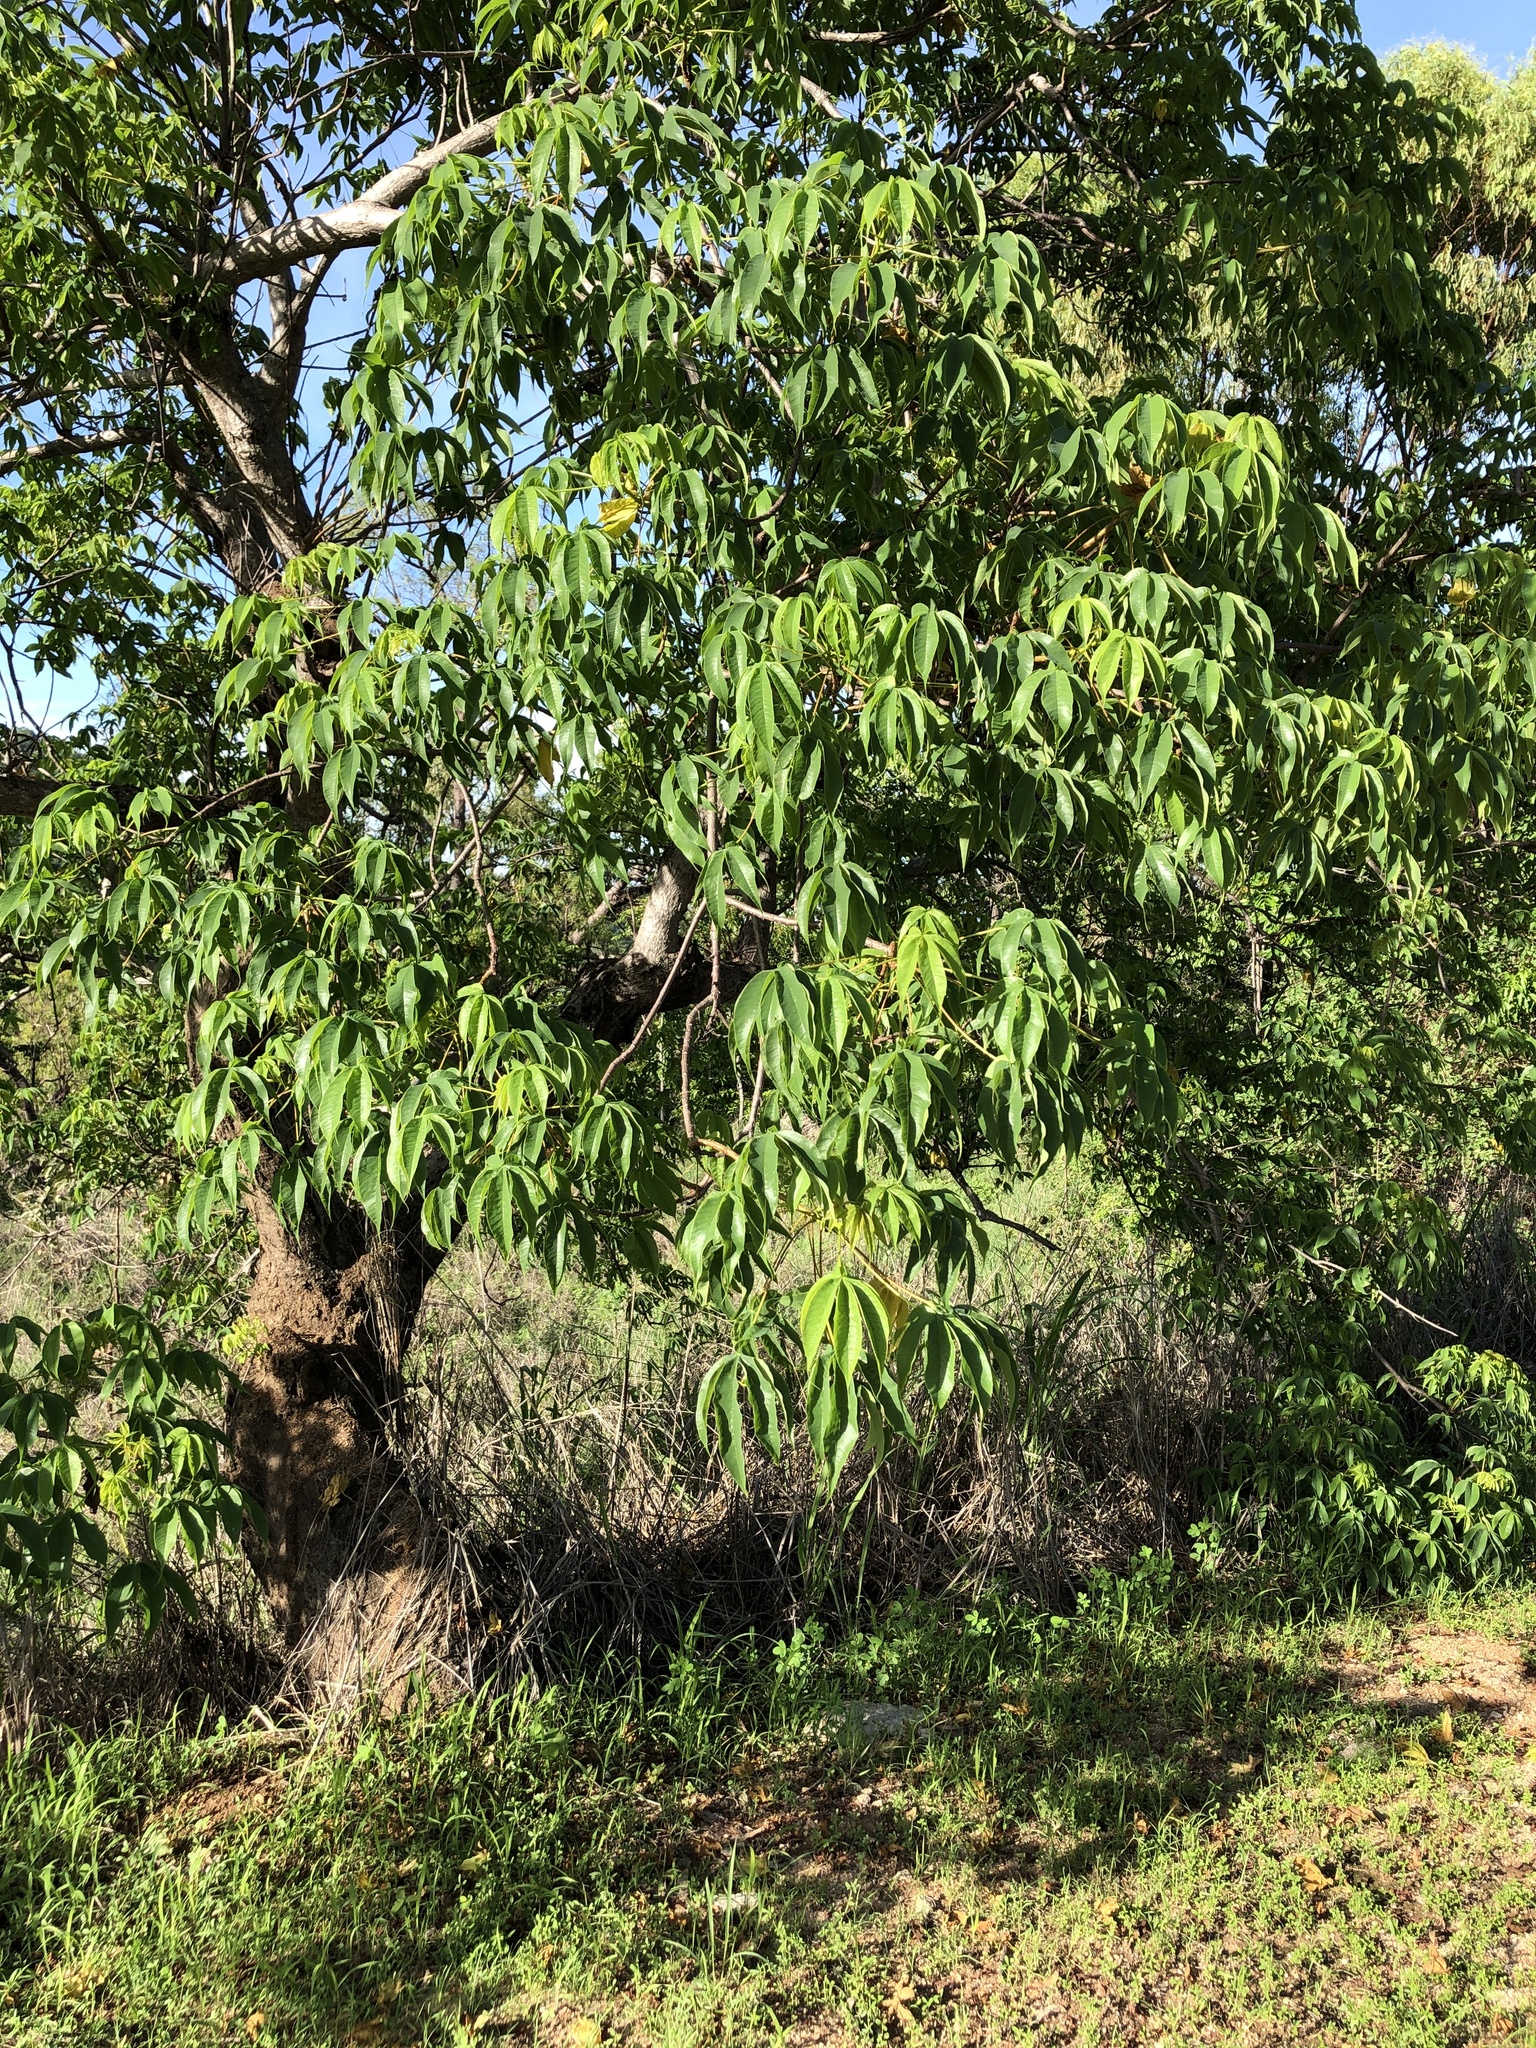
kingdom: Plantae
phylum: Tracheophyta
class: Magnoliopsida
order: Malvales
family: Cochlospermaceae
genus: Cochlospermum
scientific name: Cochlospermum gillivraei
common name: Cottontree
